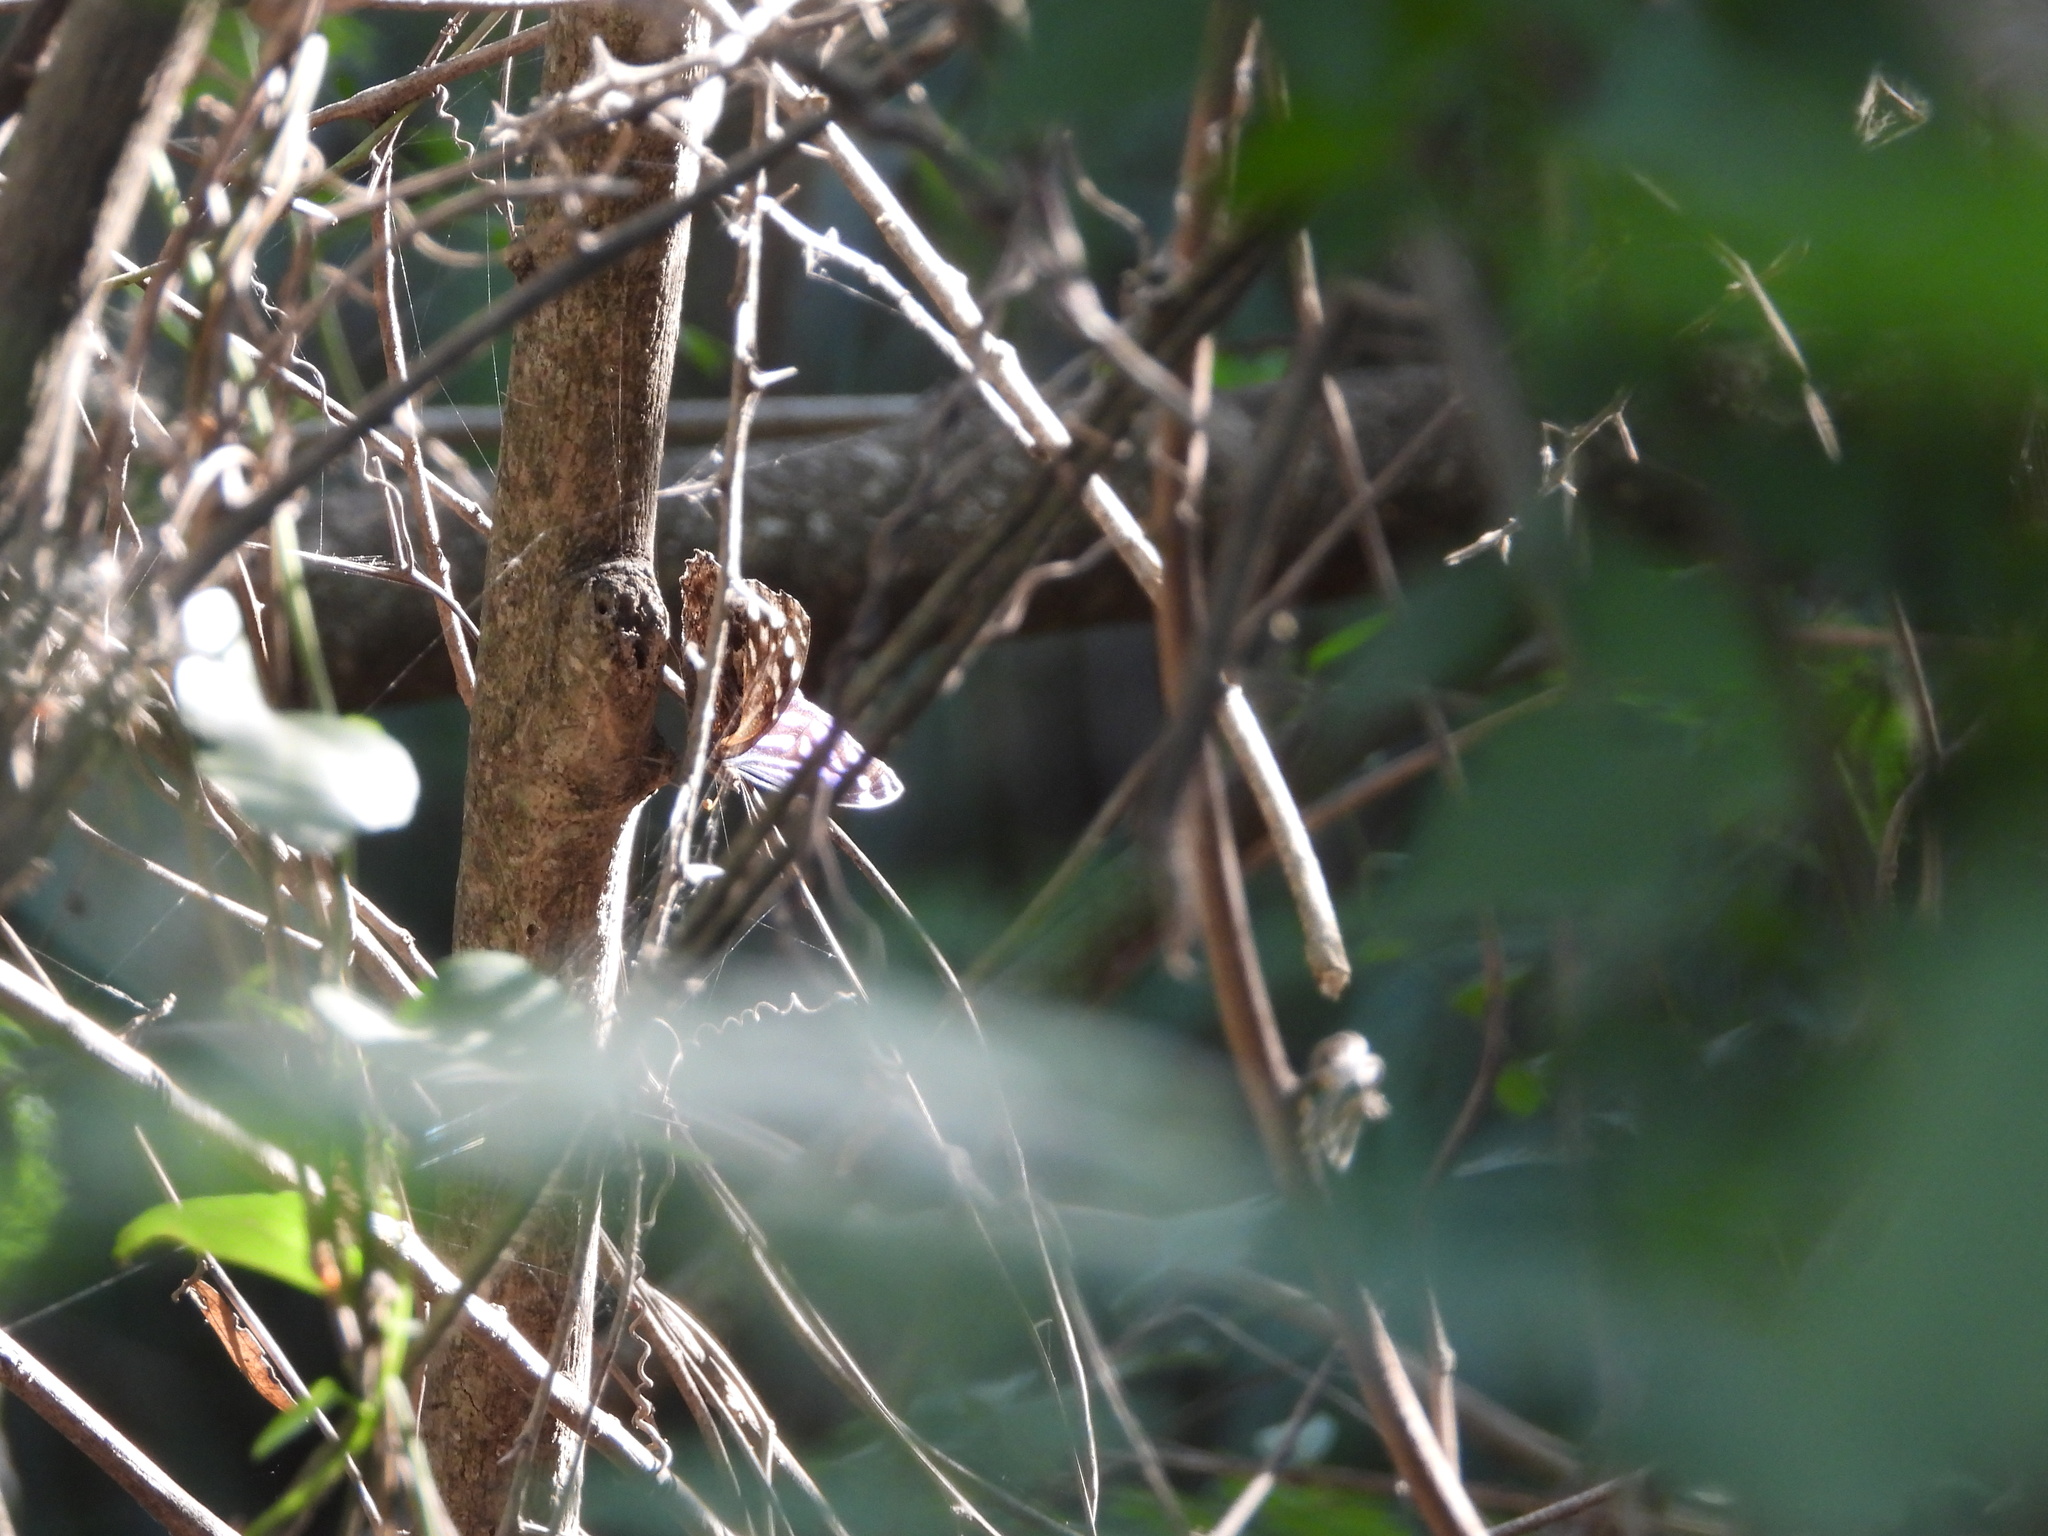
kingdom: Animalia
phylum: Arthropoda
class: Insecta
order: Lepidoptera
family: Nymphalidae
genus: Myscelia
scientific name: Myscelia ethusa
